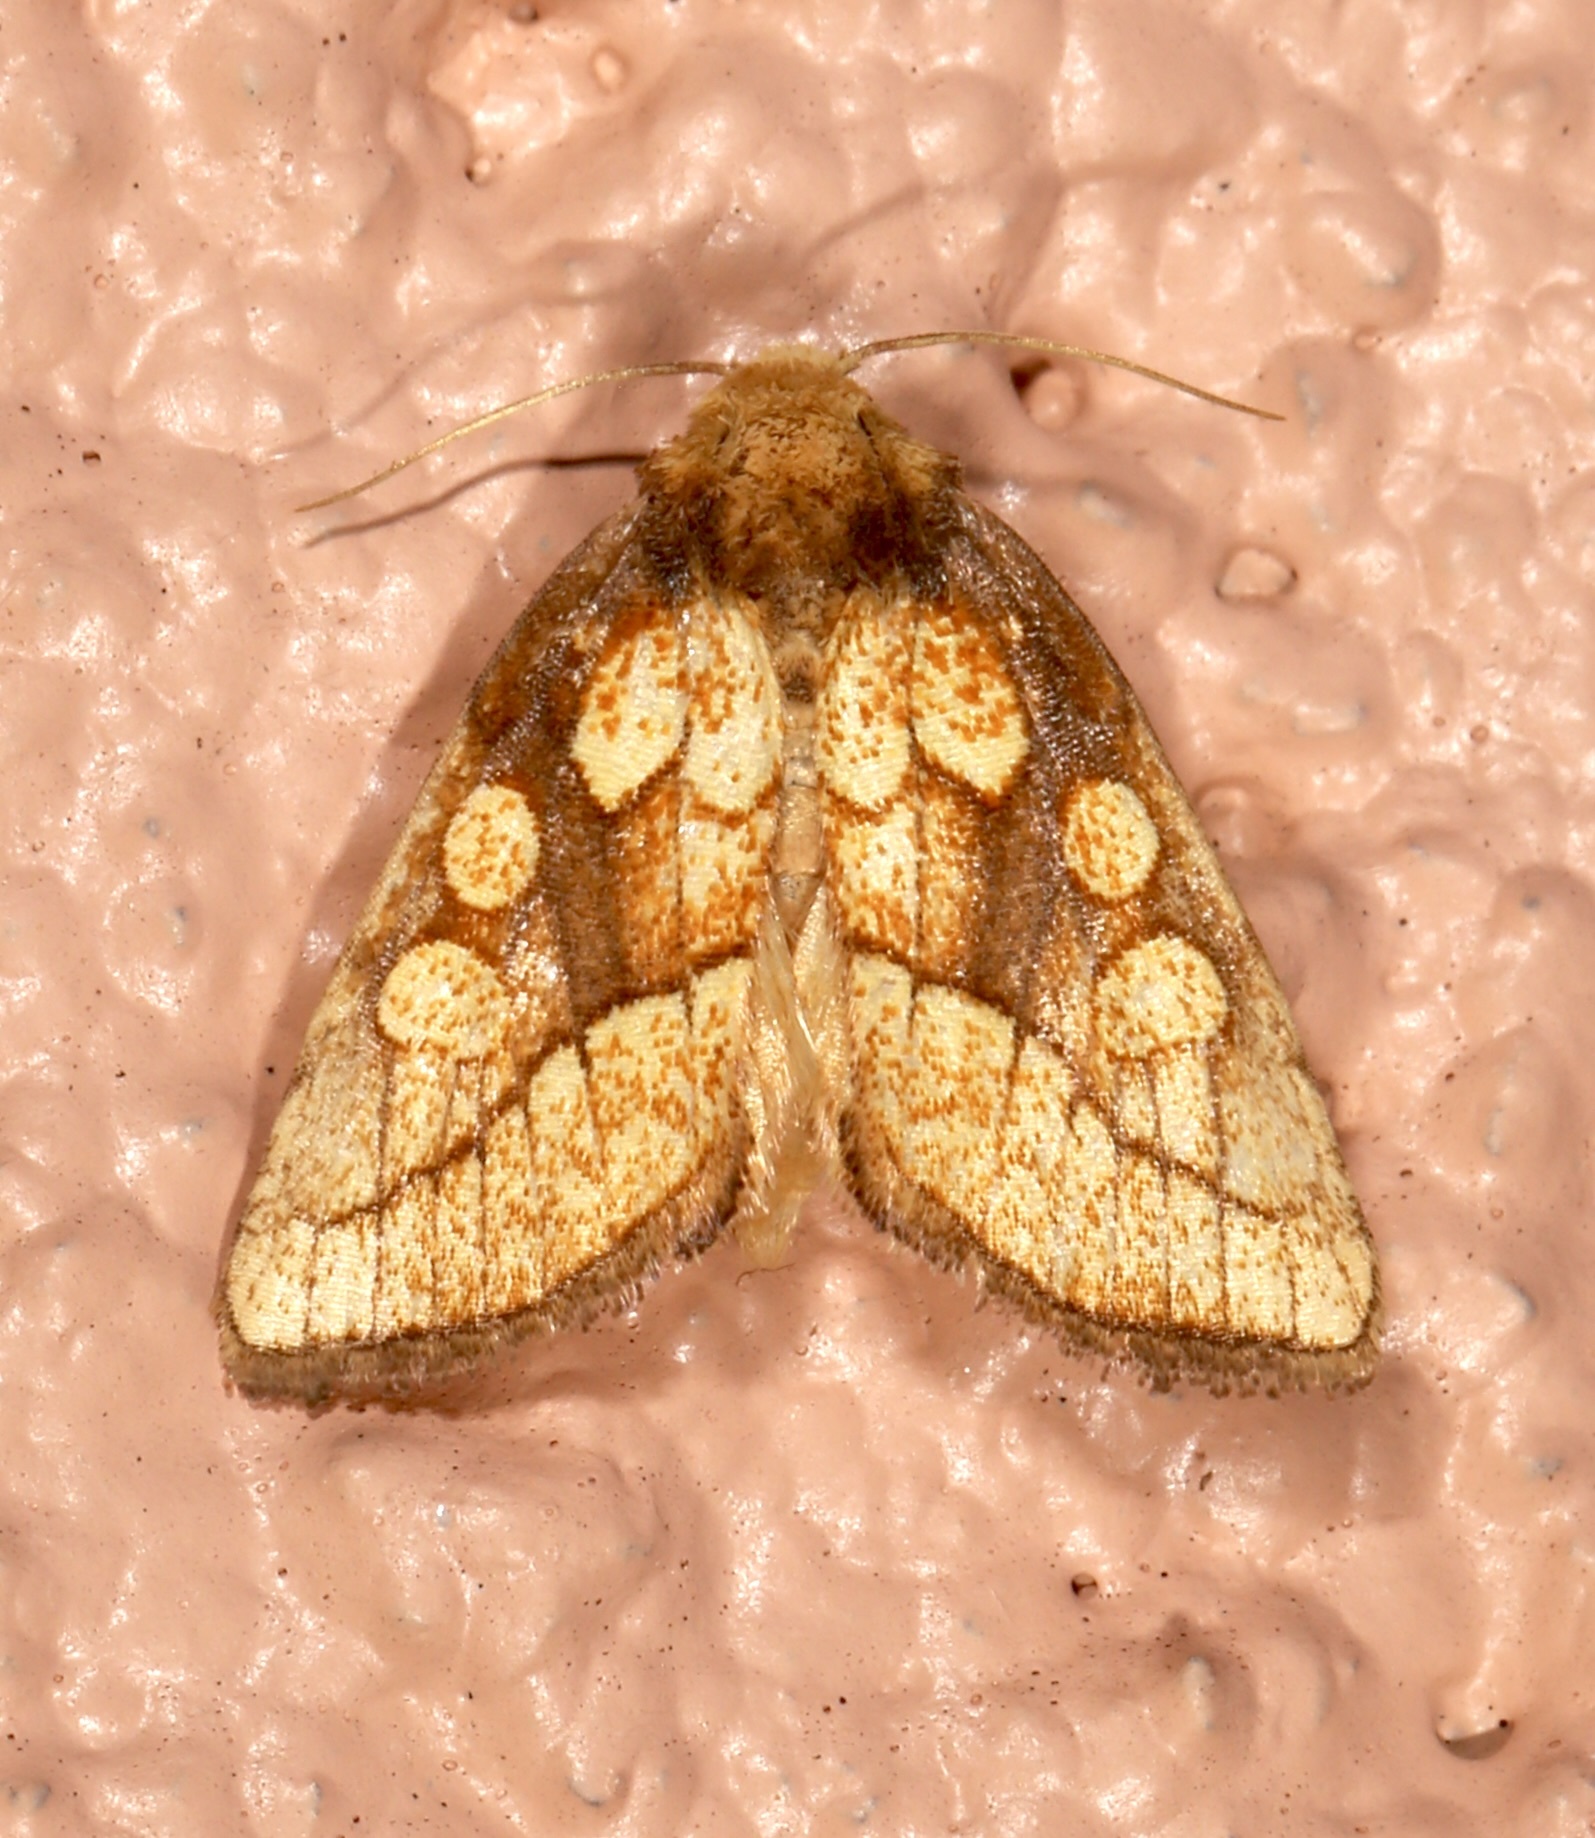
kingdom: Animalia
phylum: Arthropoda
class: Insecta
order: Lepidoptera
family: Noctuidae
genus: Nocloa
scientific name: Nocloa alcandra
